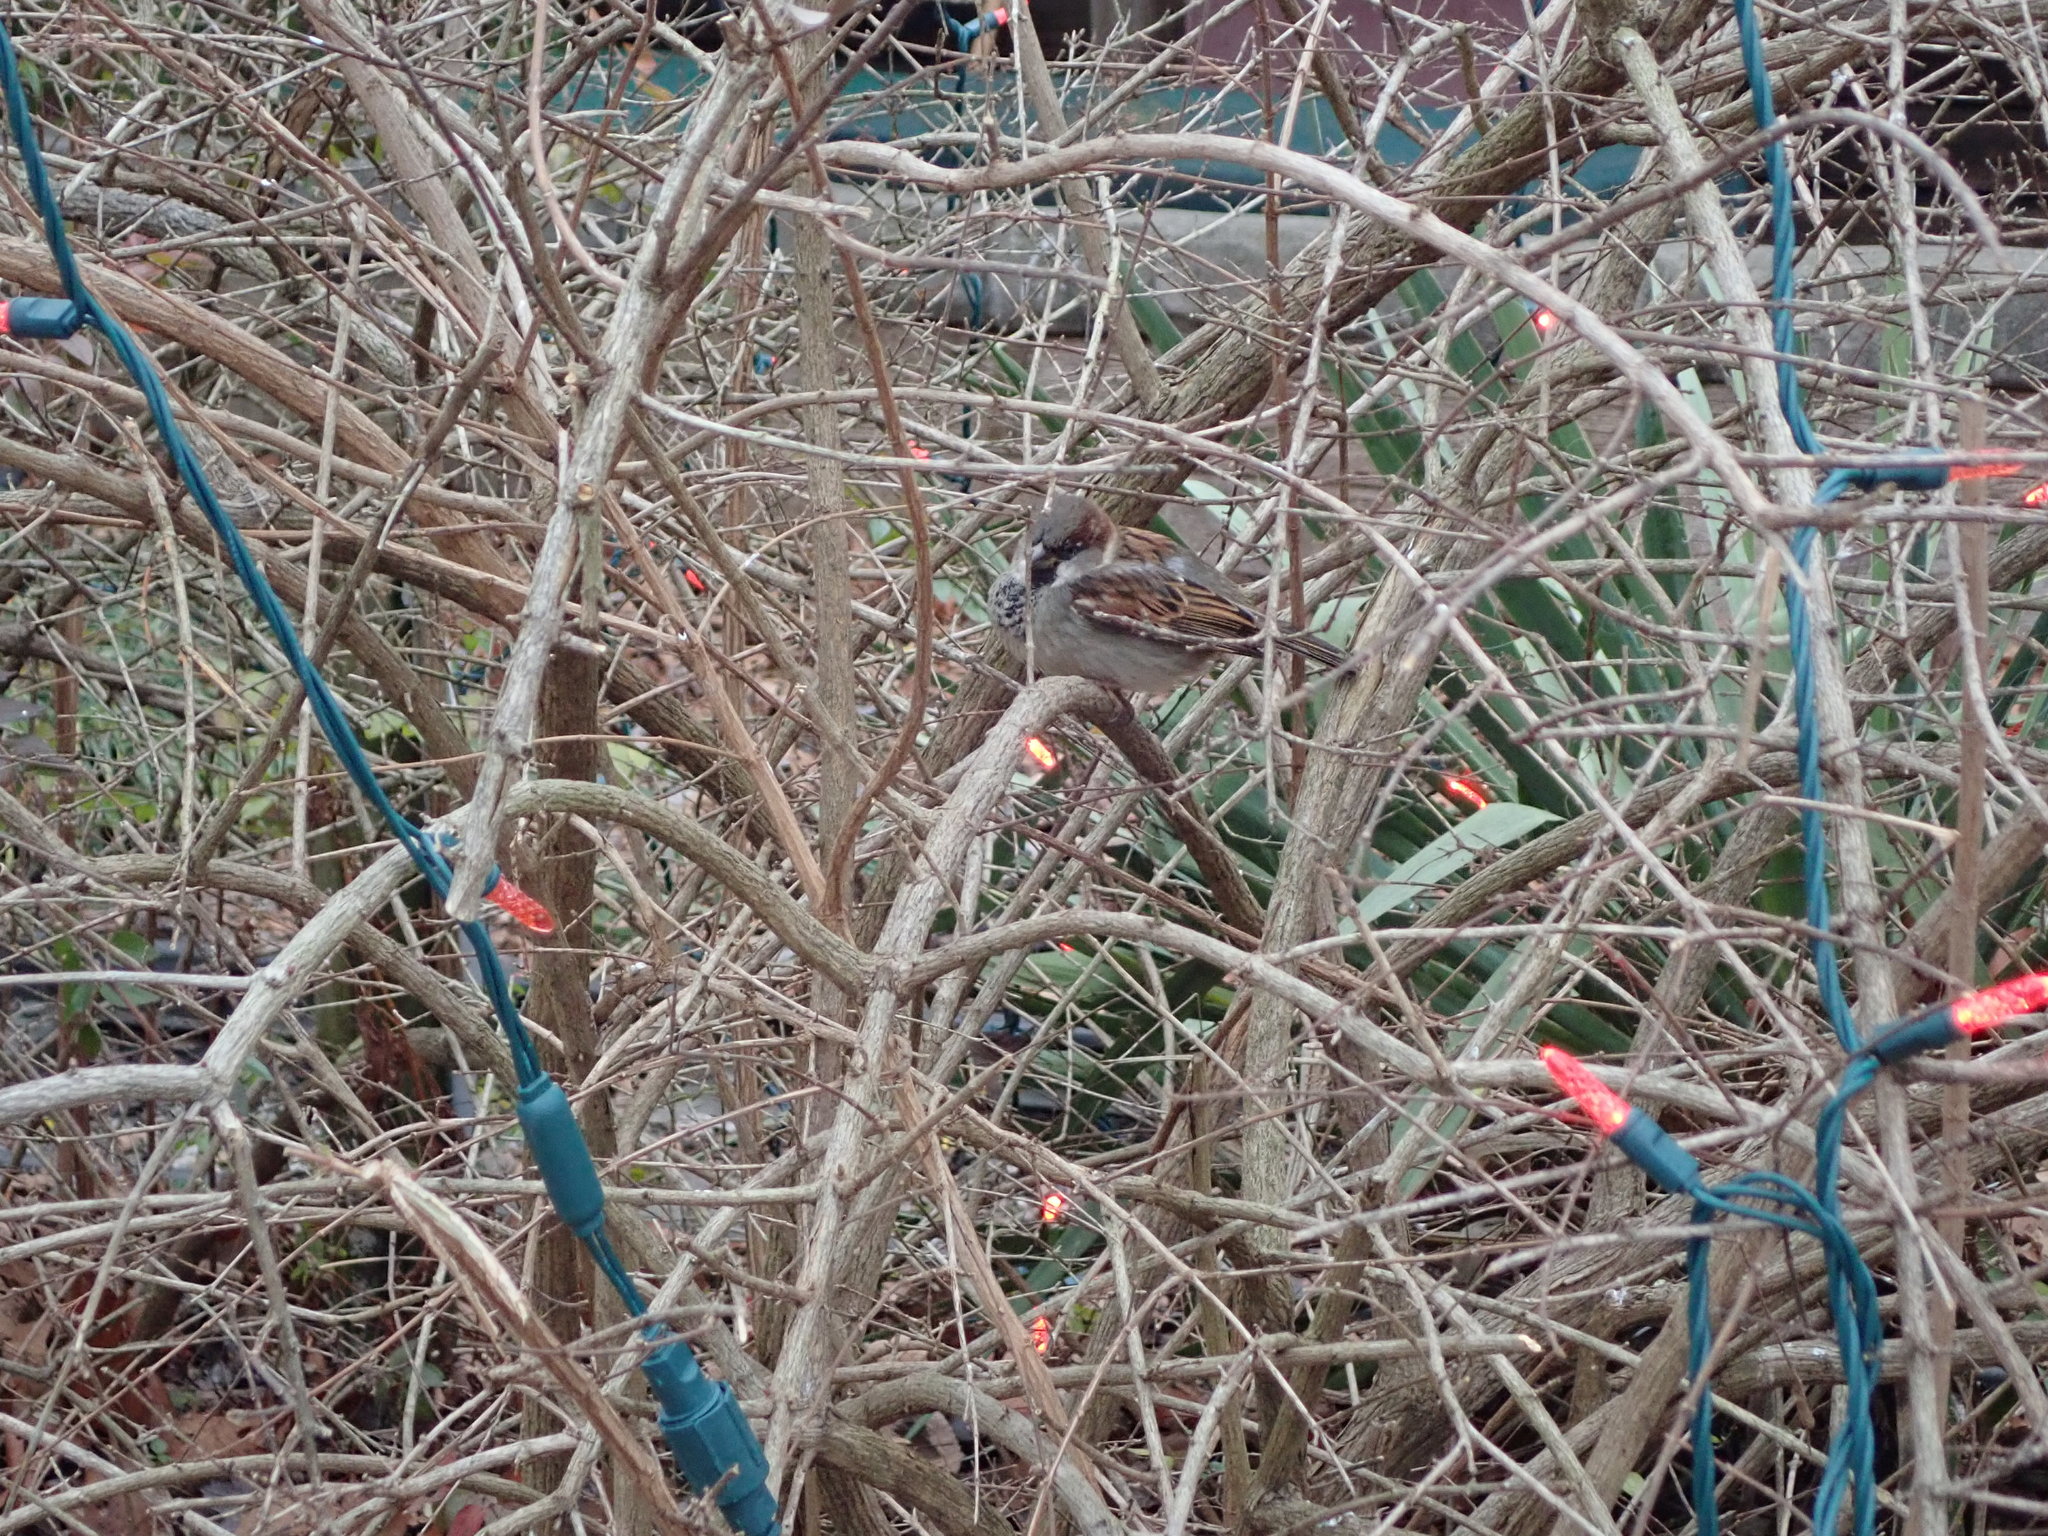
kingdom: Animalia
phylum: Chordata
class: Aves
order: Passeriformes
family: Passeridae
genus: Passer
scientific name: Passer domesticus
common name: House sparrow
